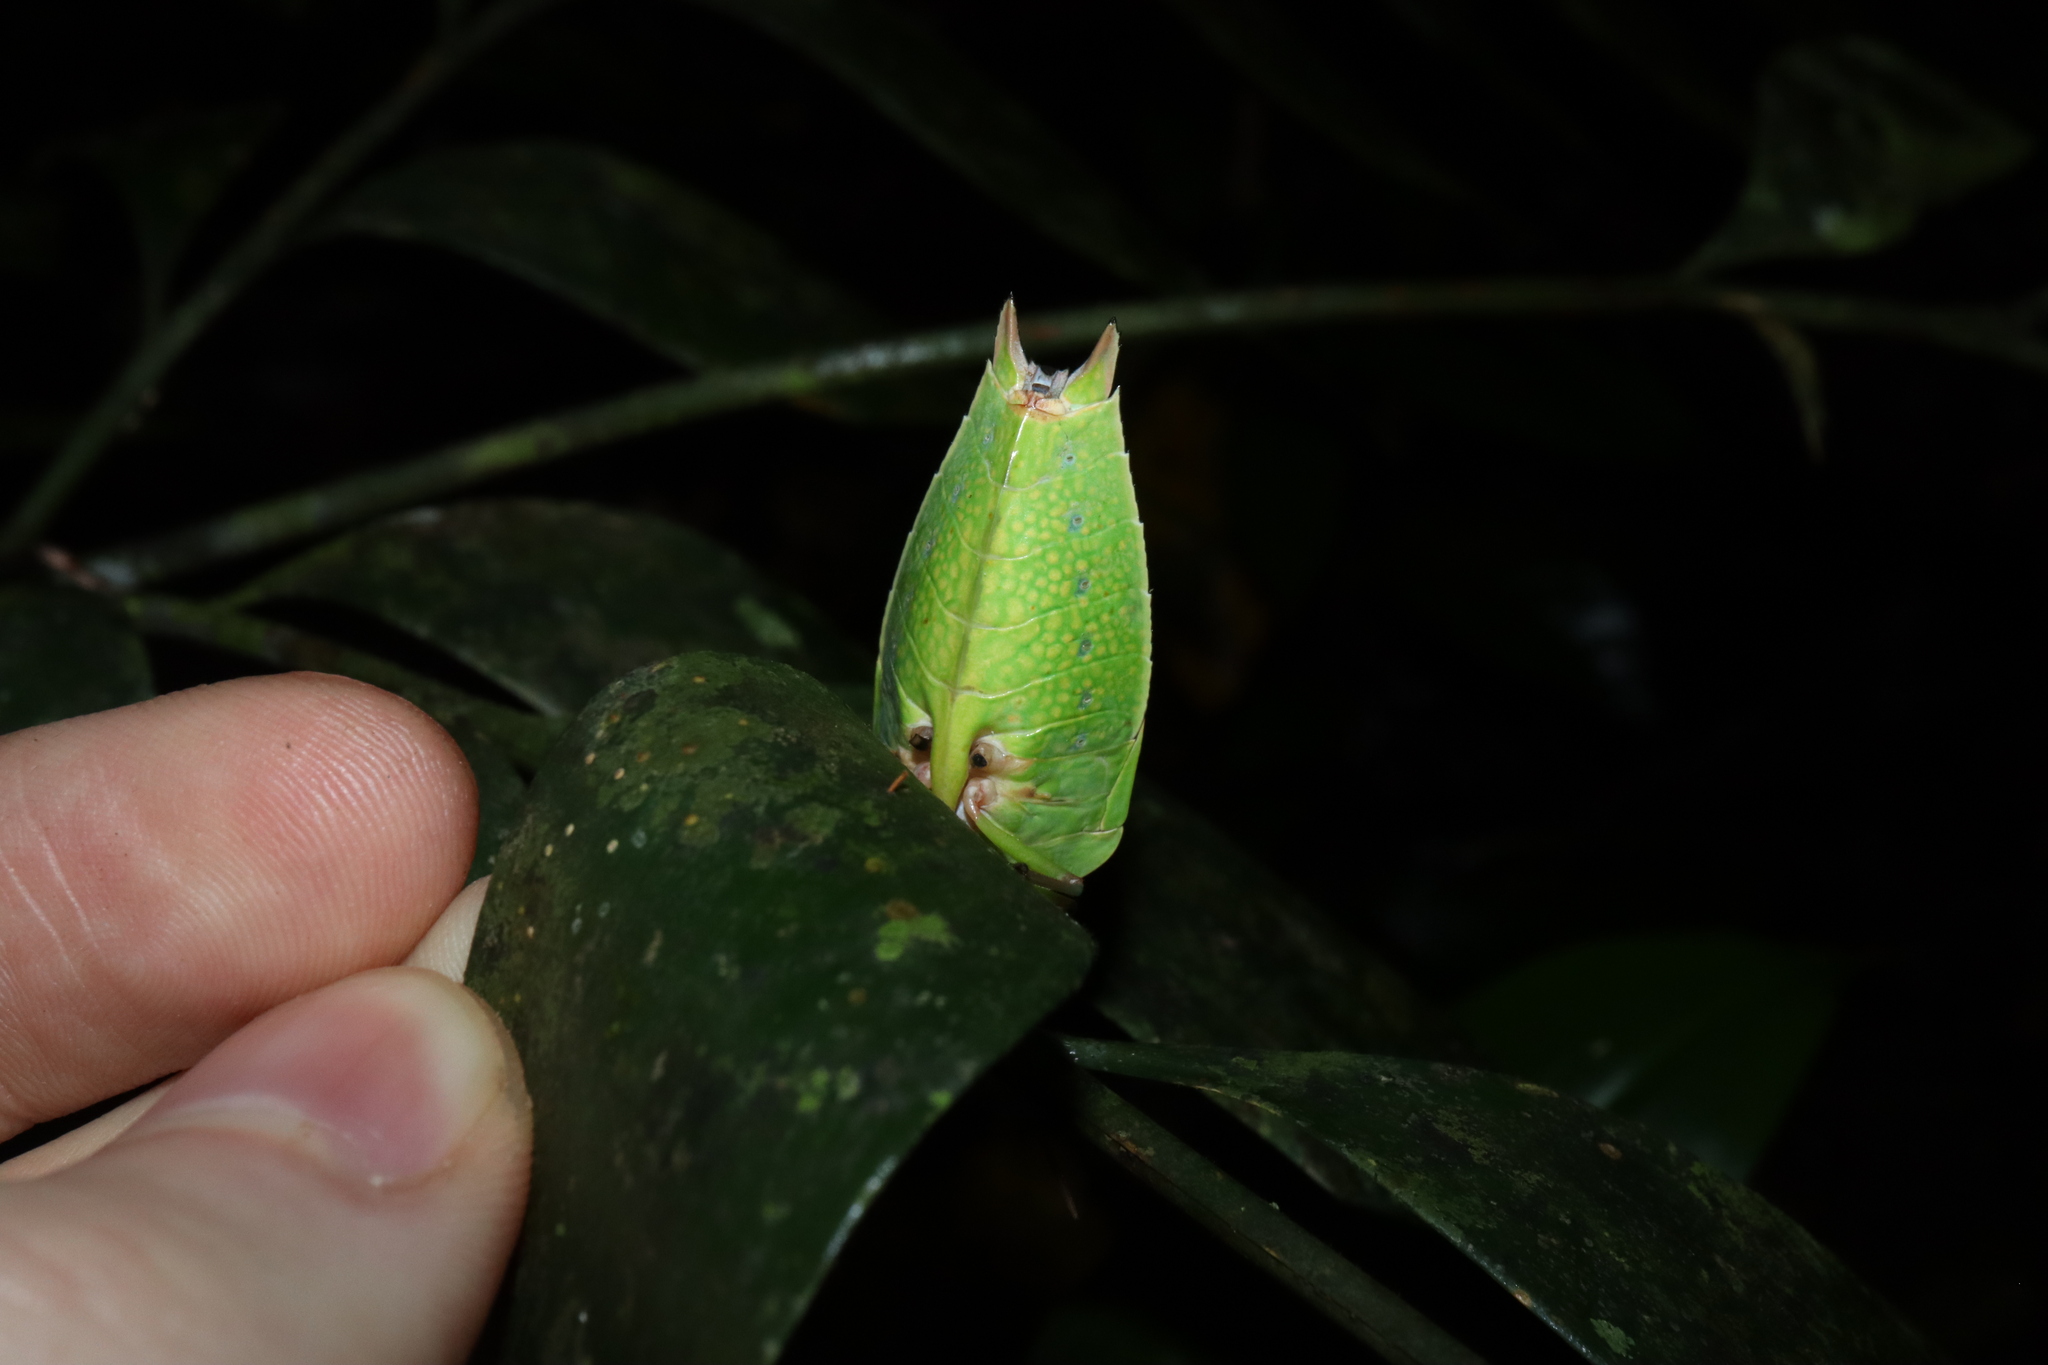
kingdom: Animalia
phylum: Arthropoda
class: Insecta
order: Hemiptera
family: Tessaratomidae
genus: Lyramorpha
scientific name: Lyramorpha parens
